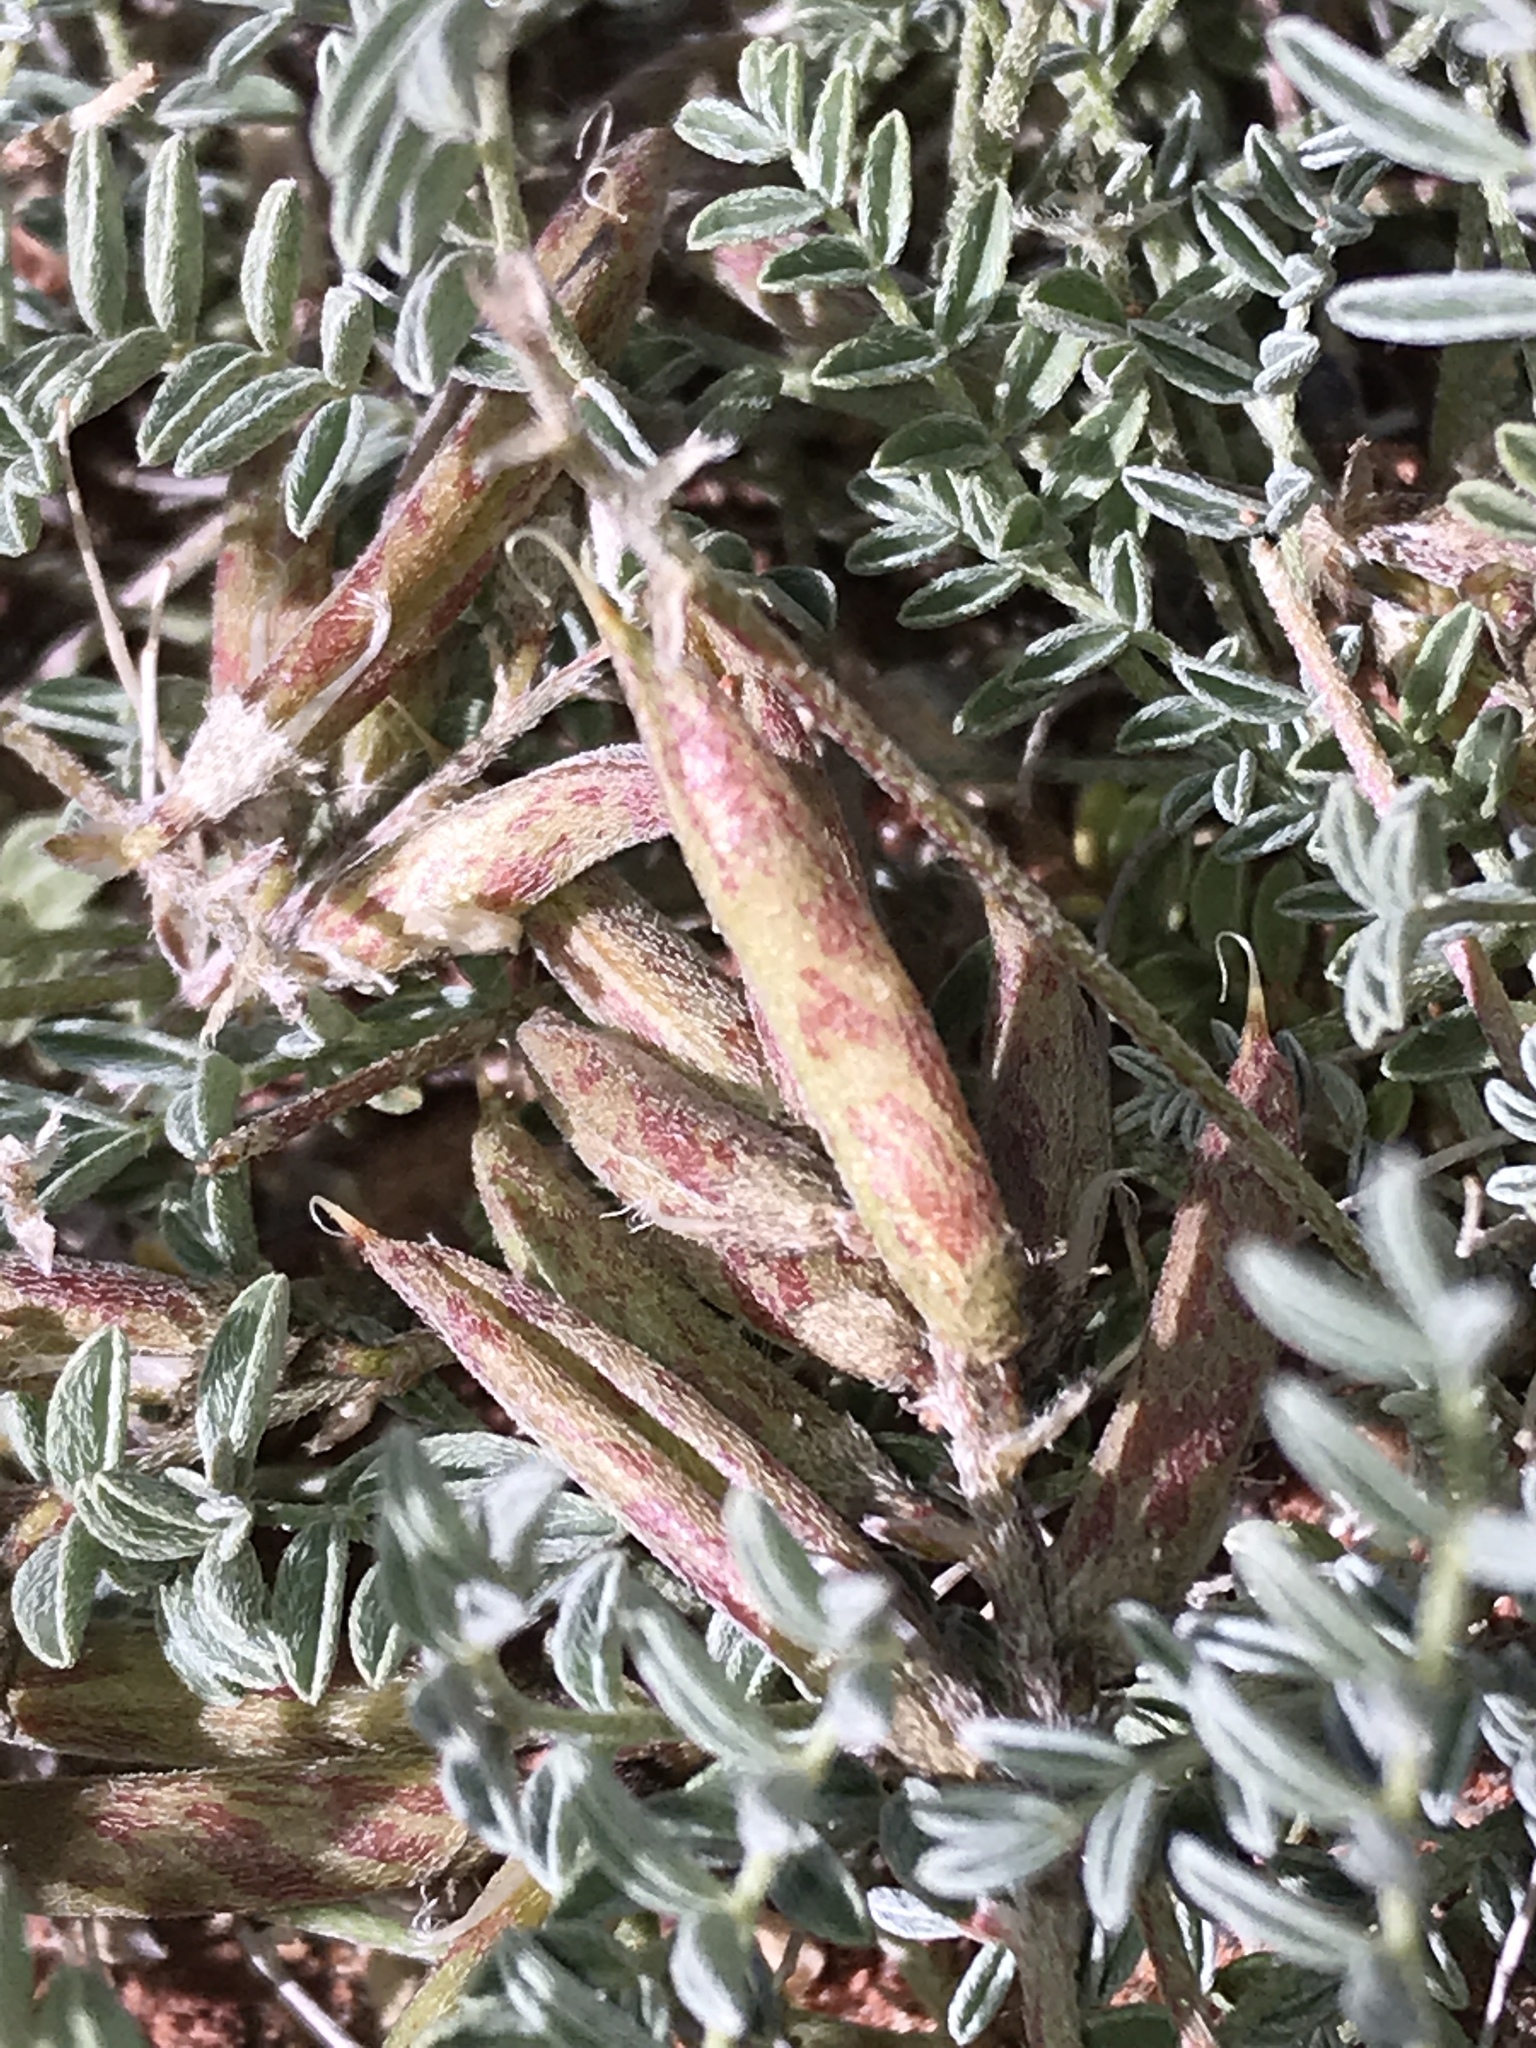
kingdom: Plantae
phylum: Tracheophyta
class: Magnoliopsida
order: Fabales
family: Fabaceae
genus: Astragalus
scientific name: Astragalus monumentalis
